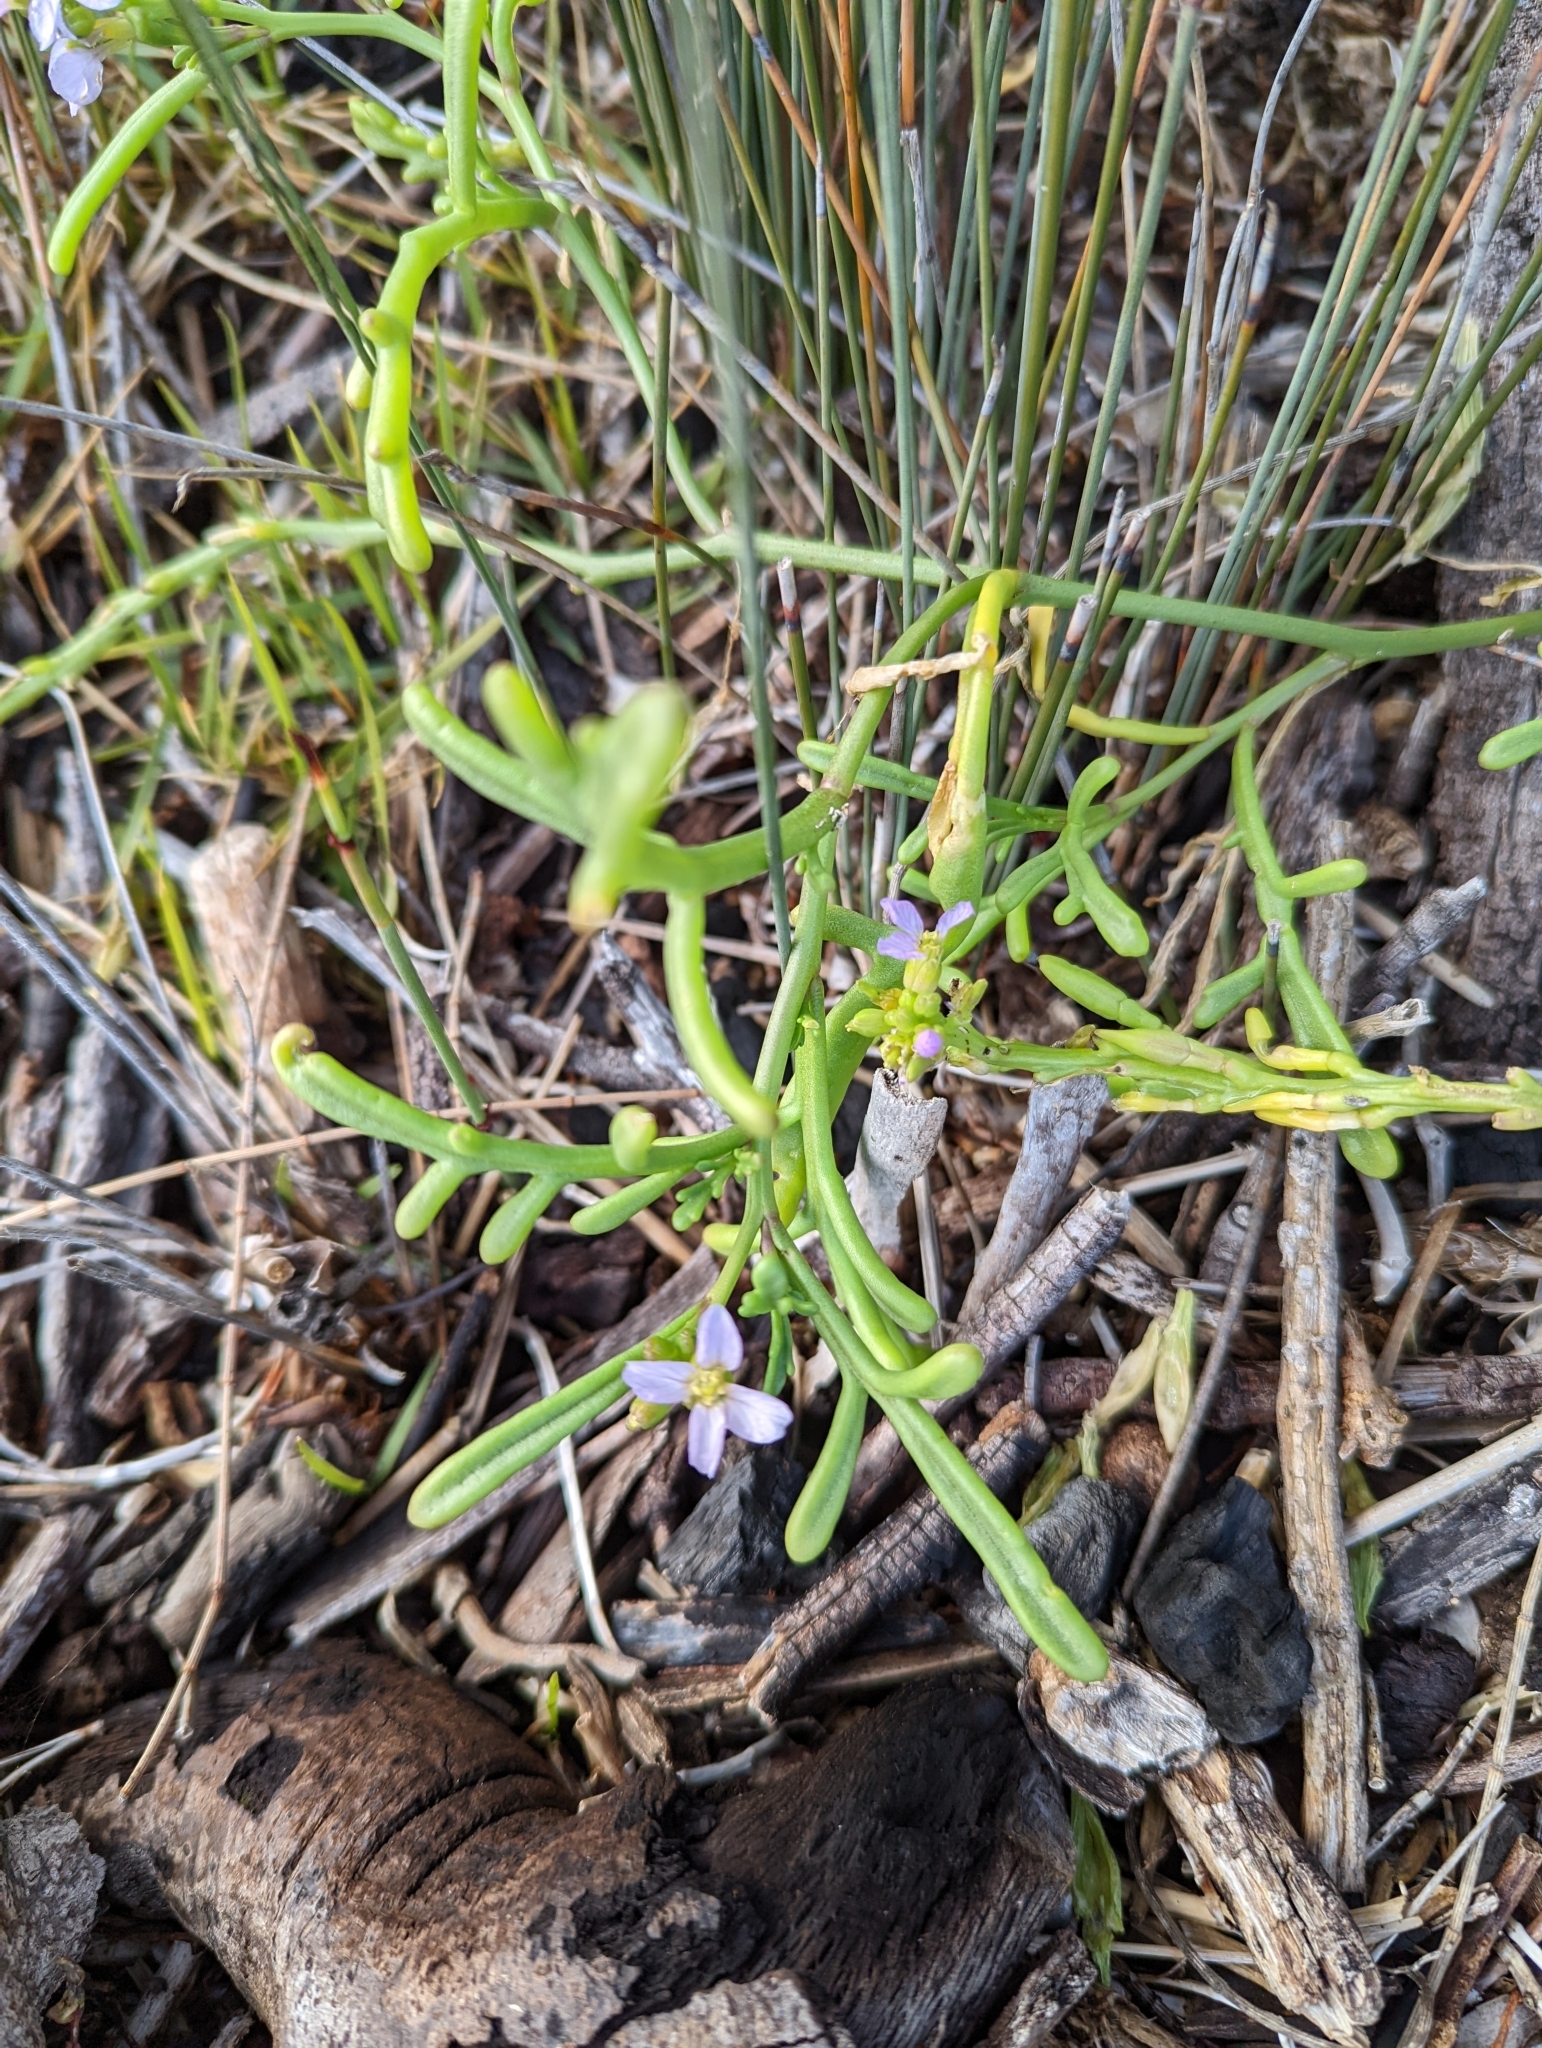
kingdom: Plantae
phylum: Tracheophyta
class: Magnoliopsida
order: Brassicales
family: Brassicaceae
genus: Cakile
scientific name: Cakile maritima
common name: Sea rocket
